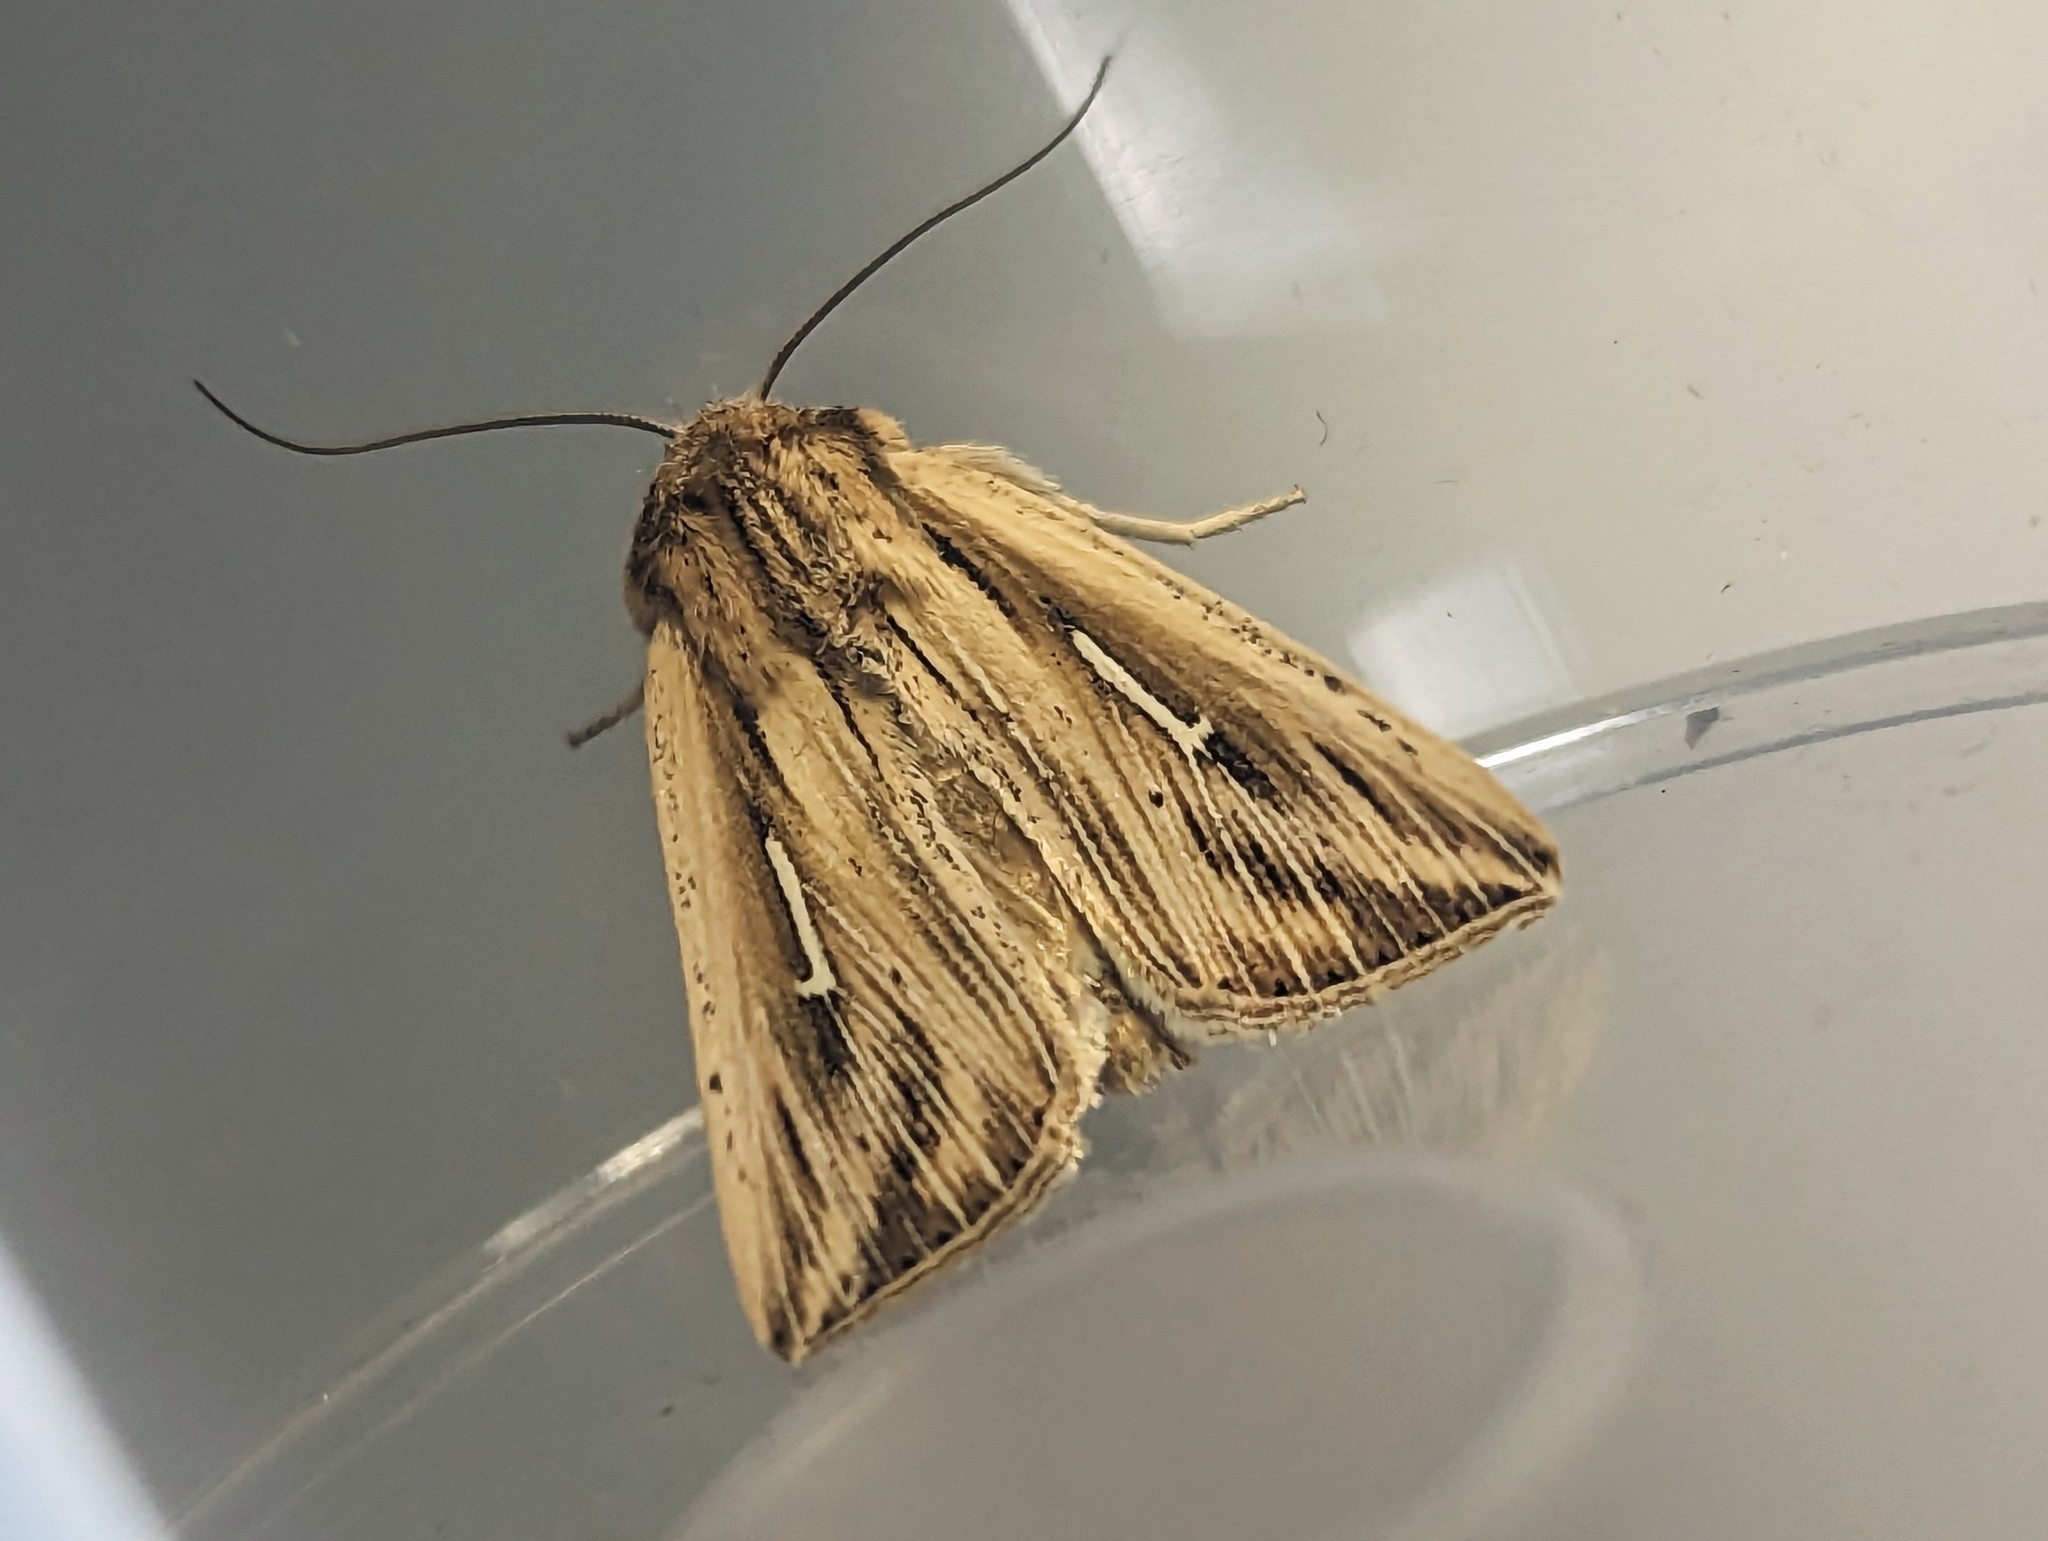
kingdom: Animalia
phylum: Arthropoda
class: Insecta
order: Lepidoptera
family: Noctuidae
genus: Mythimna
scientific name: Mythimna l-album
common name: L-album wainscot
